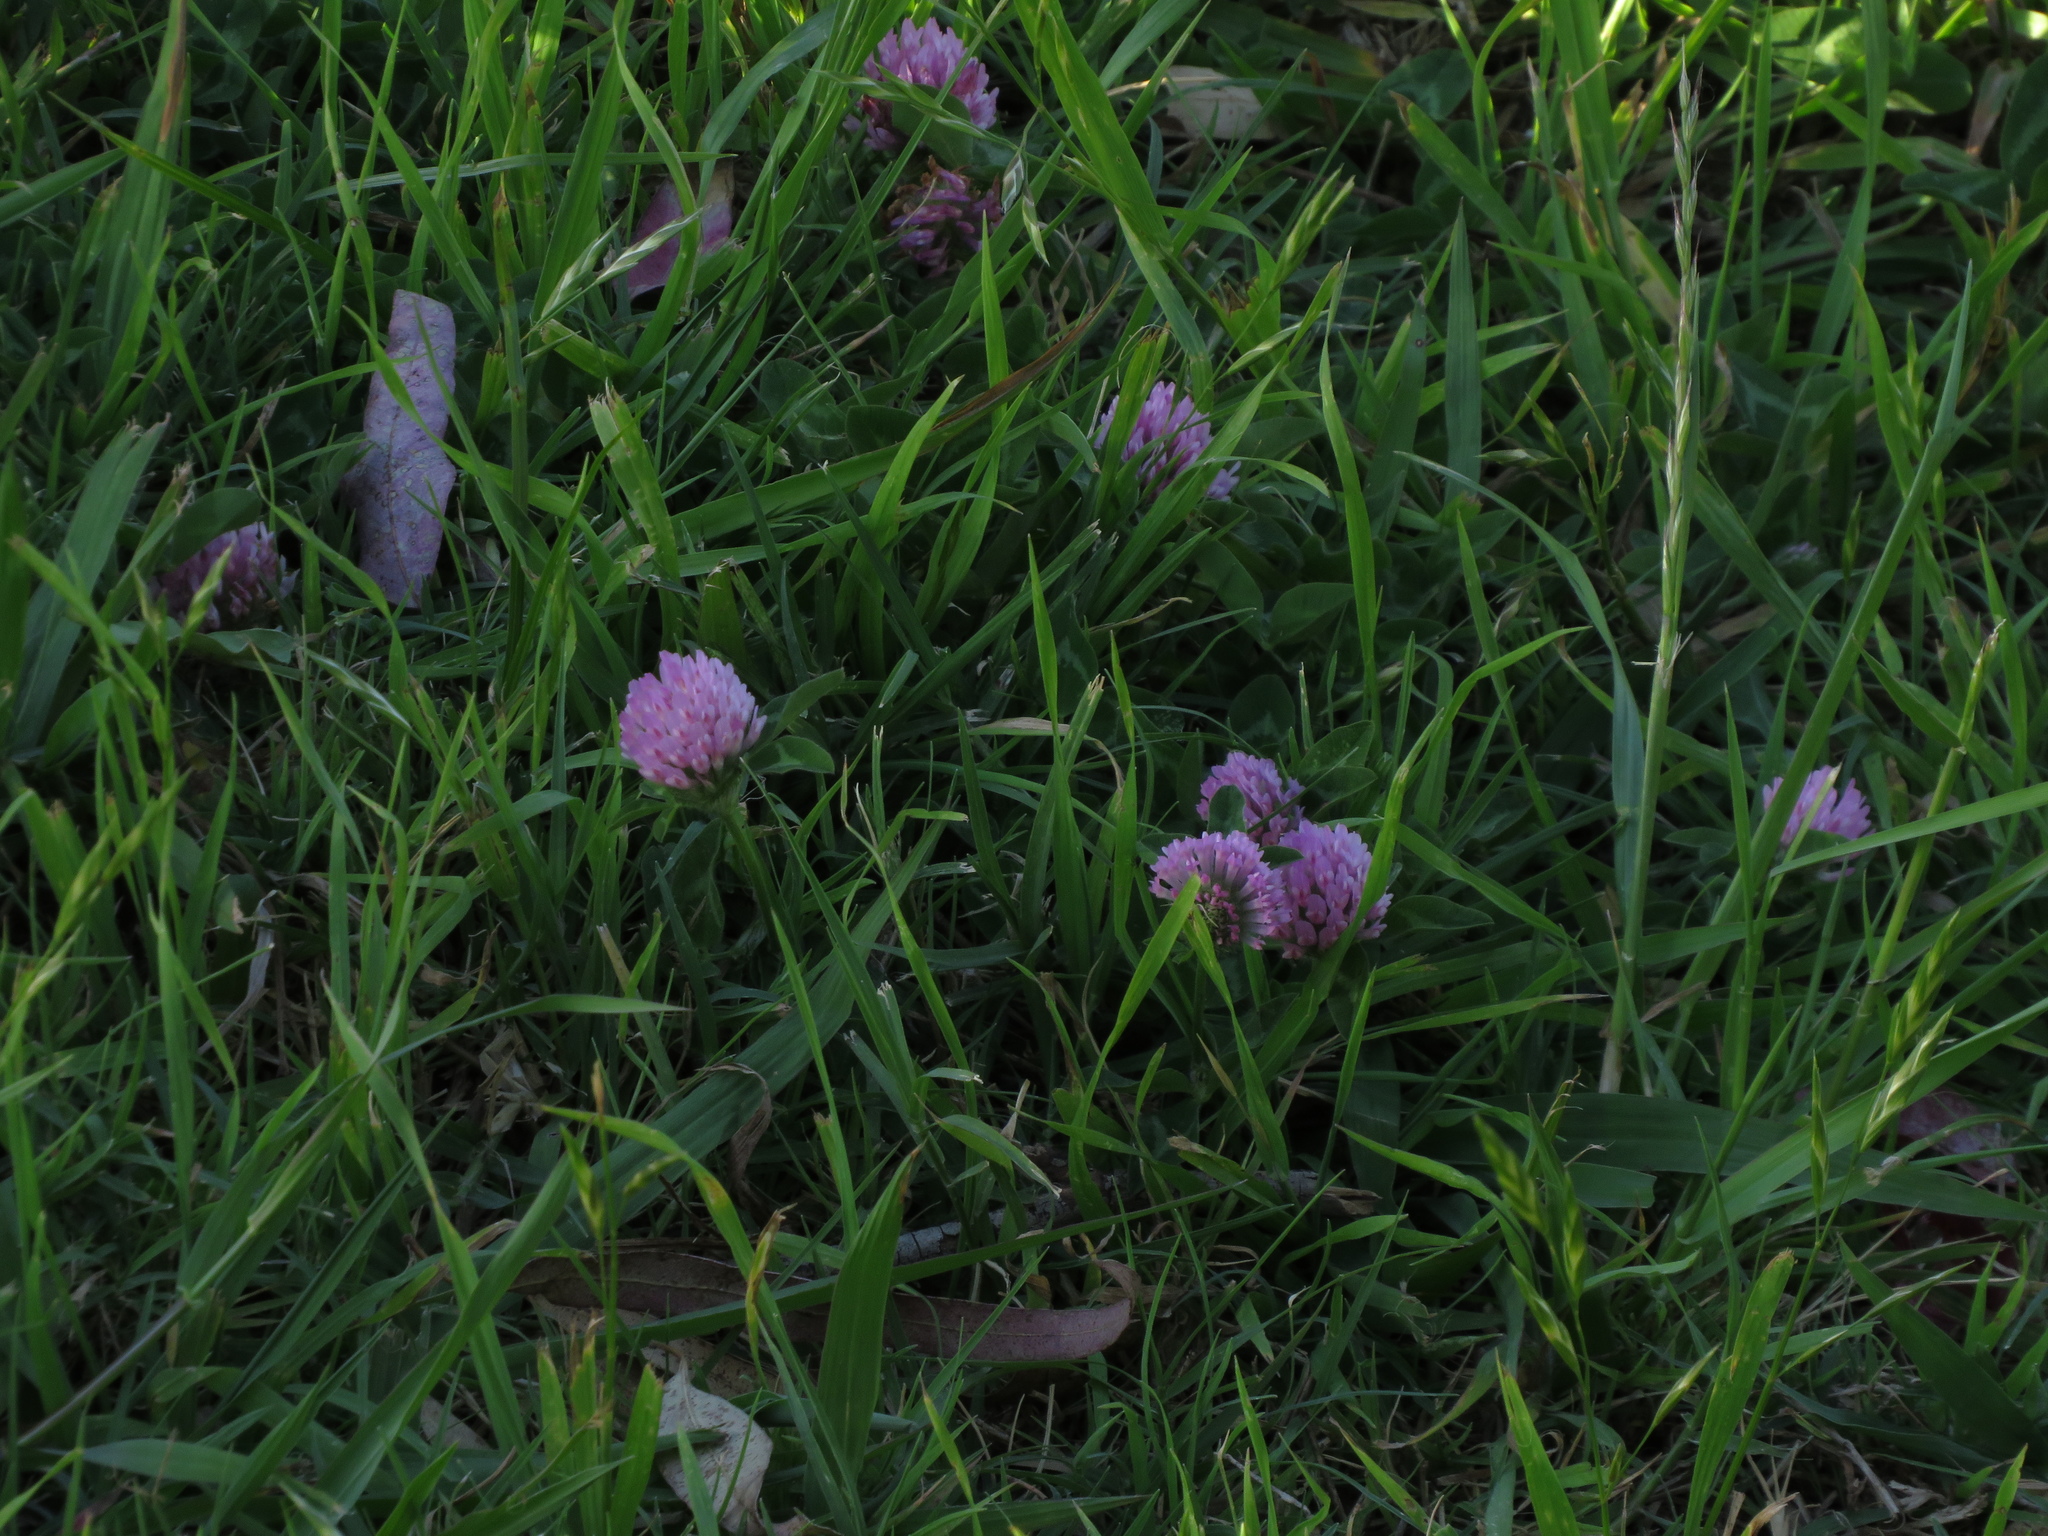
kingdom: Plantae
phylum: Tracheophyta
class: Magnoliopsida
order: Fabales
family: Fabaceae
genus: Trifolium
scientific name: Trifolium pratense
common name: Red clover
